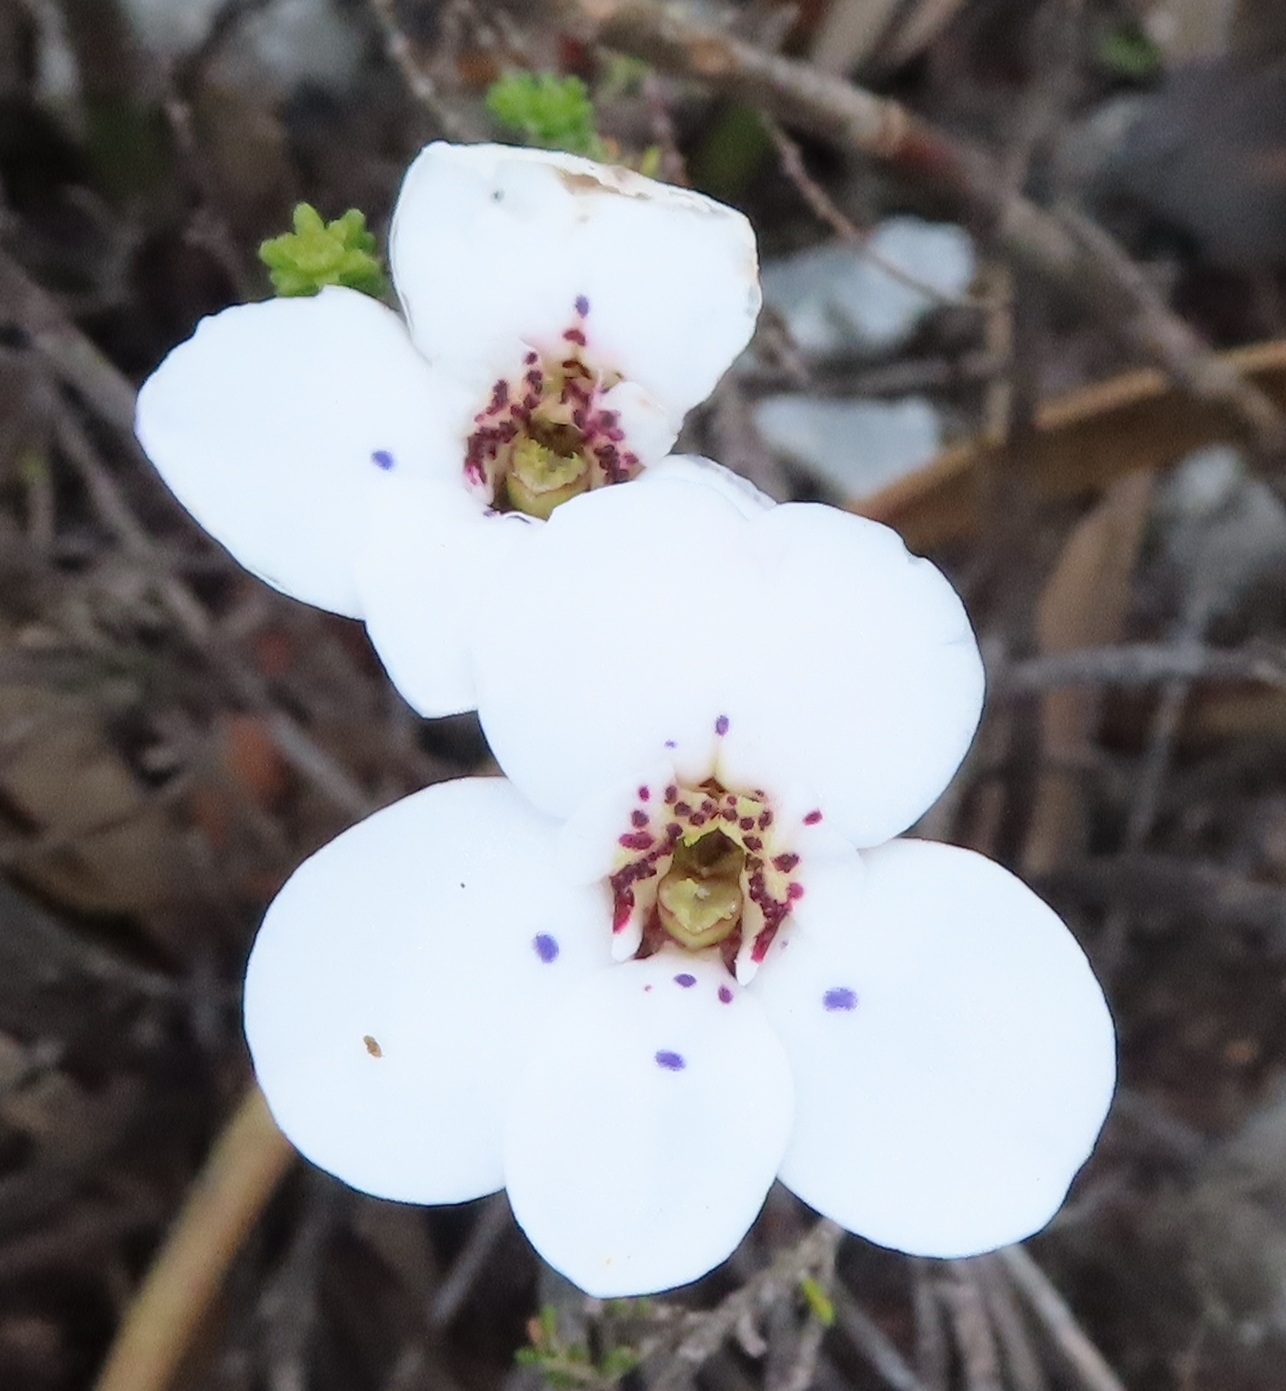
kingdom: Plantae
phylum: Tracheophyta
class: Liliopsida
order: Asparagales
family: Orchidaceae
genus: Disa
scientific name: Disa fasciata
